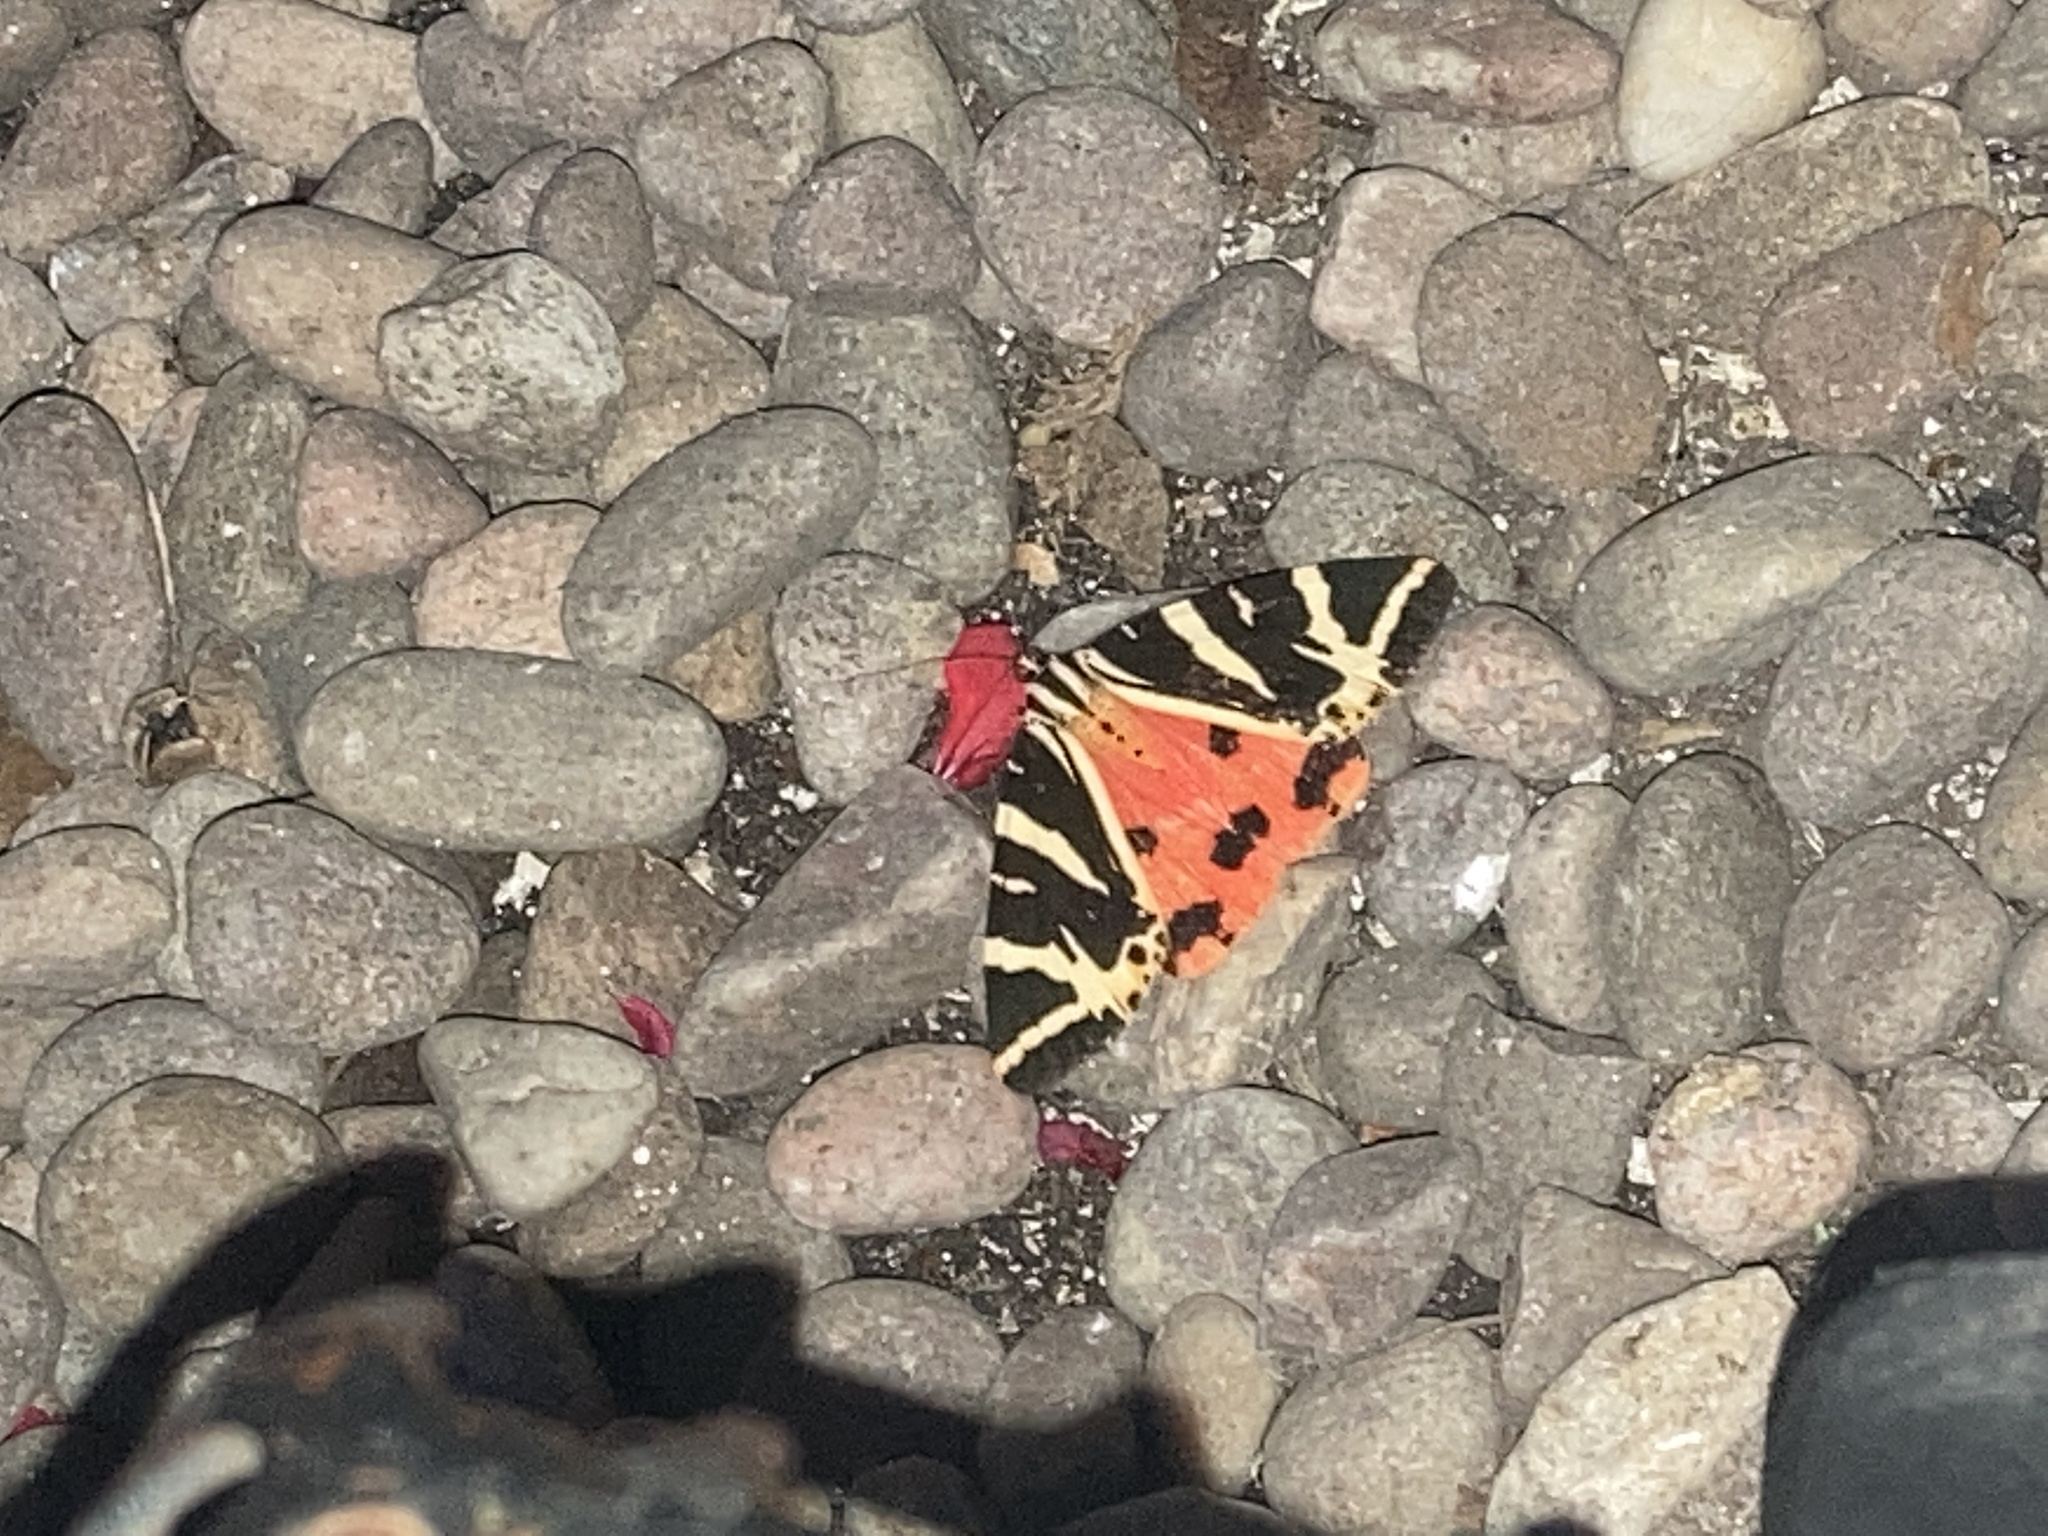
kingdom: Animalia
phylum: Arthropoda
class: Insecta
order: Lepidoptera
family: Erebidae
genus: Euplagia
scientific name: Euplagia quadripunctaria
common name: Jersey tiger
